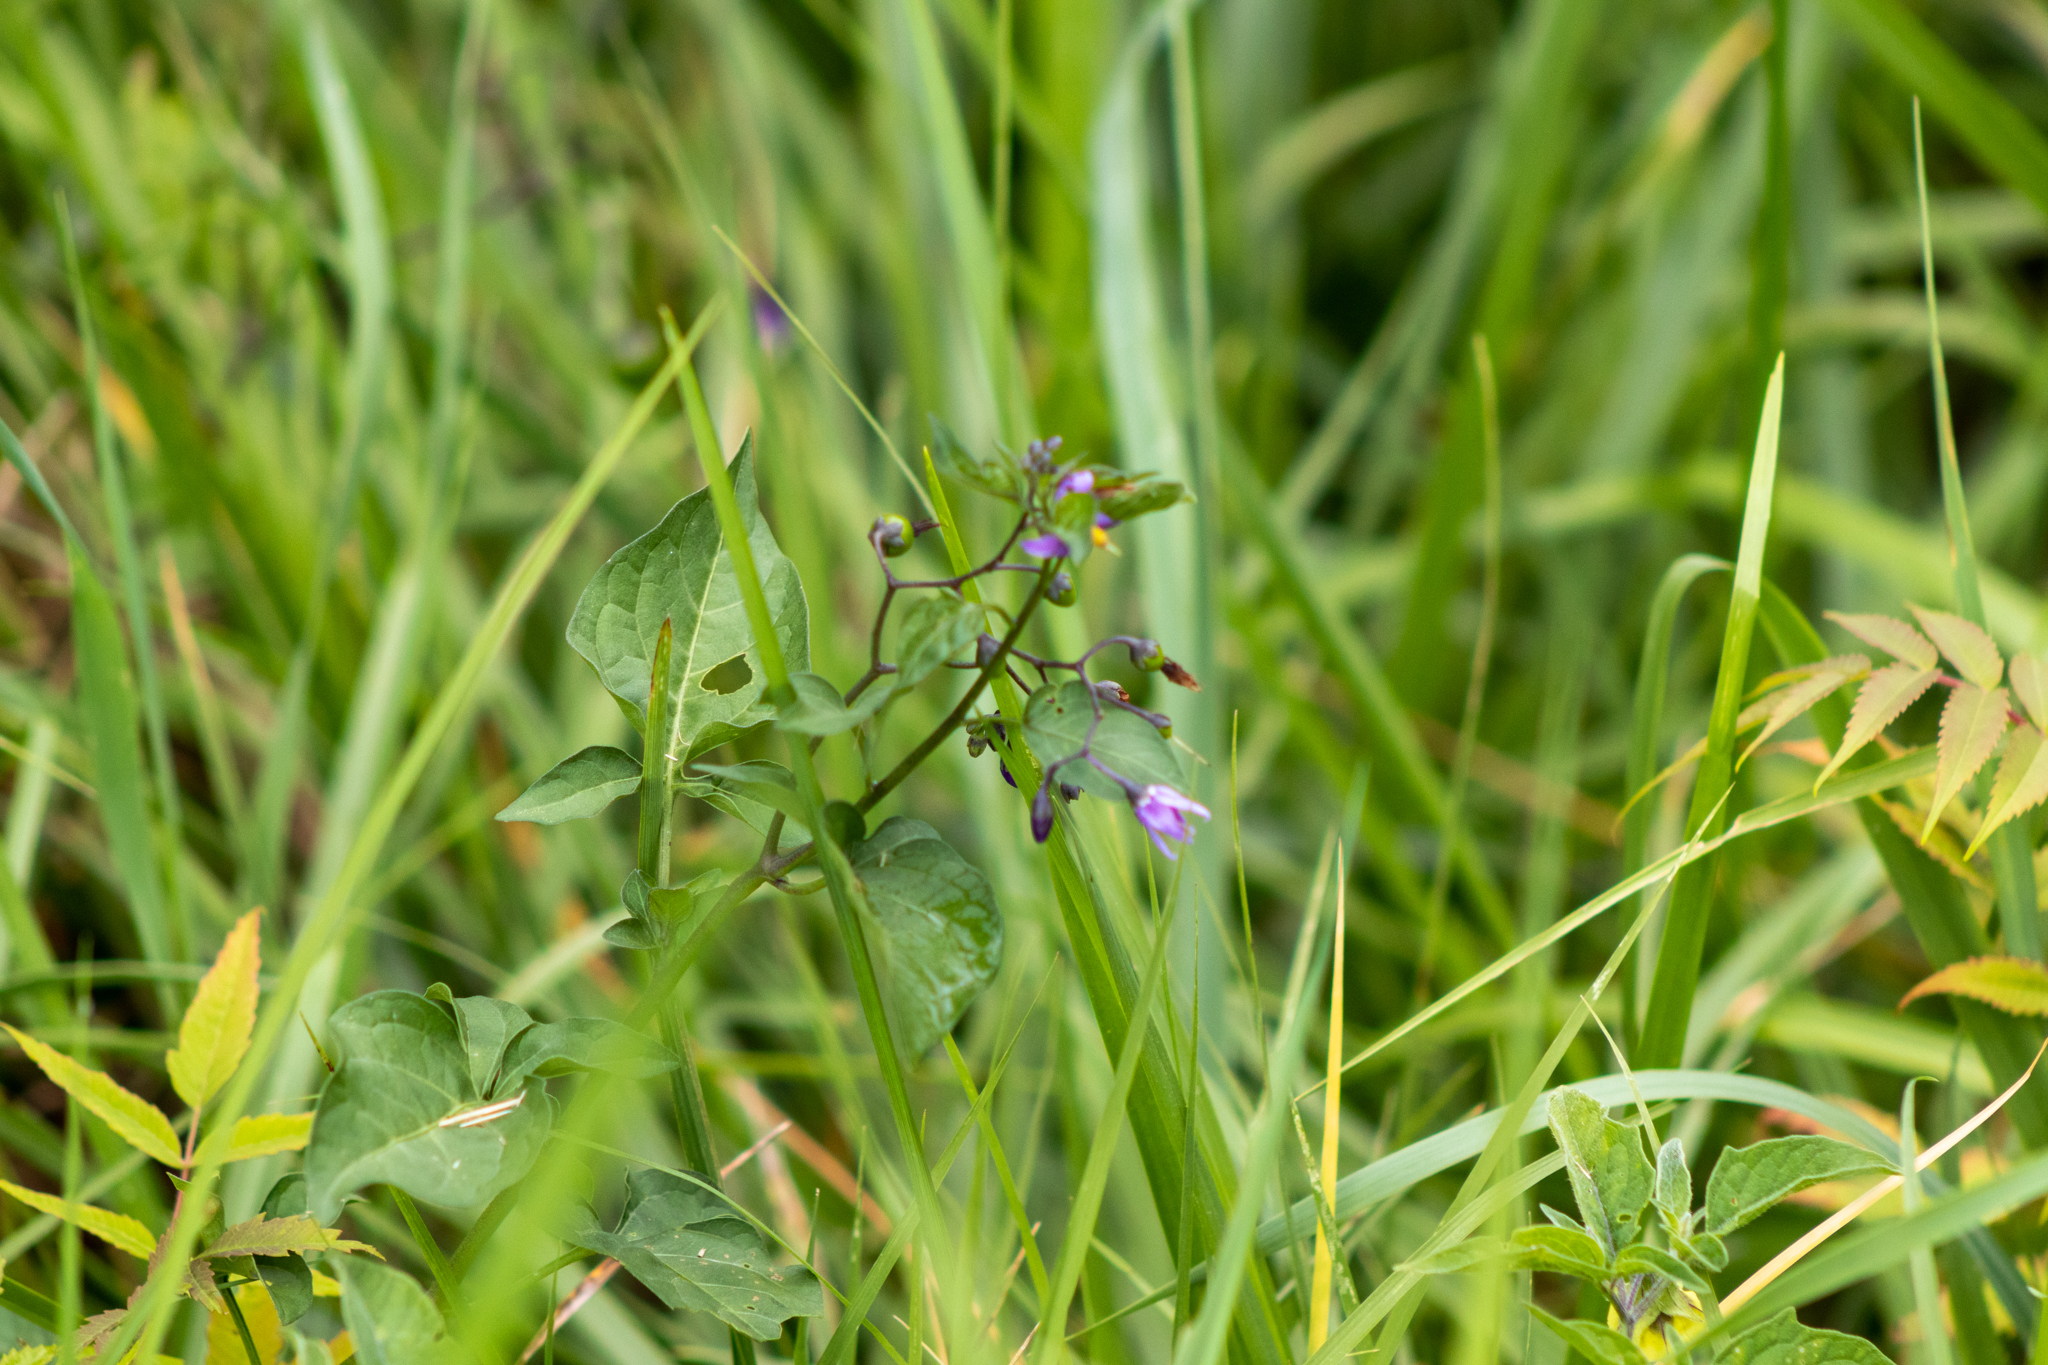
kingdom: Plantae
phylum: Tracheophyta
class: Magnoliopsida
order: Solanales
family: Solanaceae
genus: Solanum
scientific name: Solanum dulcamara
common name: Climbing nightshade
